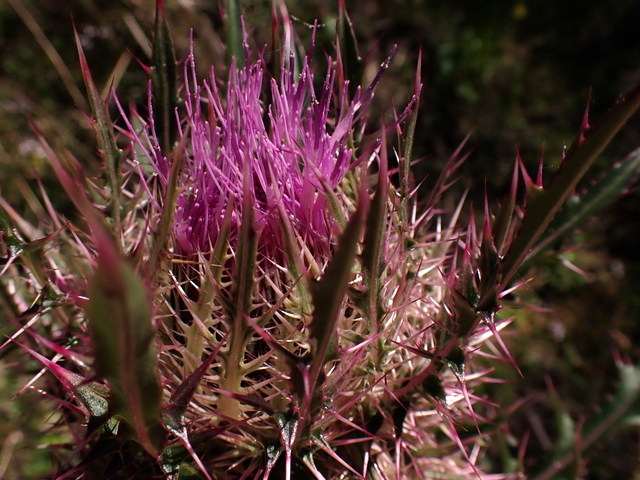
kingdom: Plantae
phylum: Tracheophyta
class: Magnoliopsida
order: Asterales
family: Asteraceae
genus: Cirsium
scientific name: Cirsium horridulum
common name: Bristly thistle
